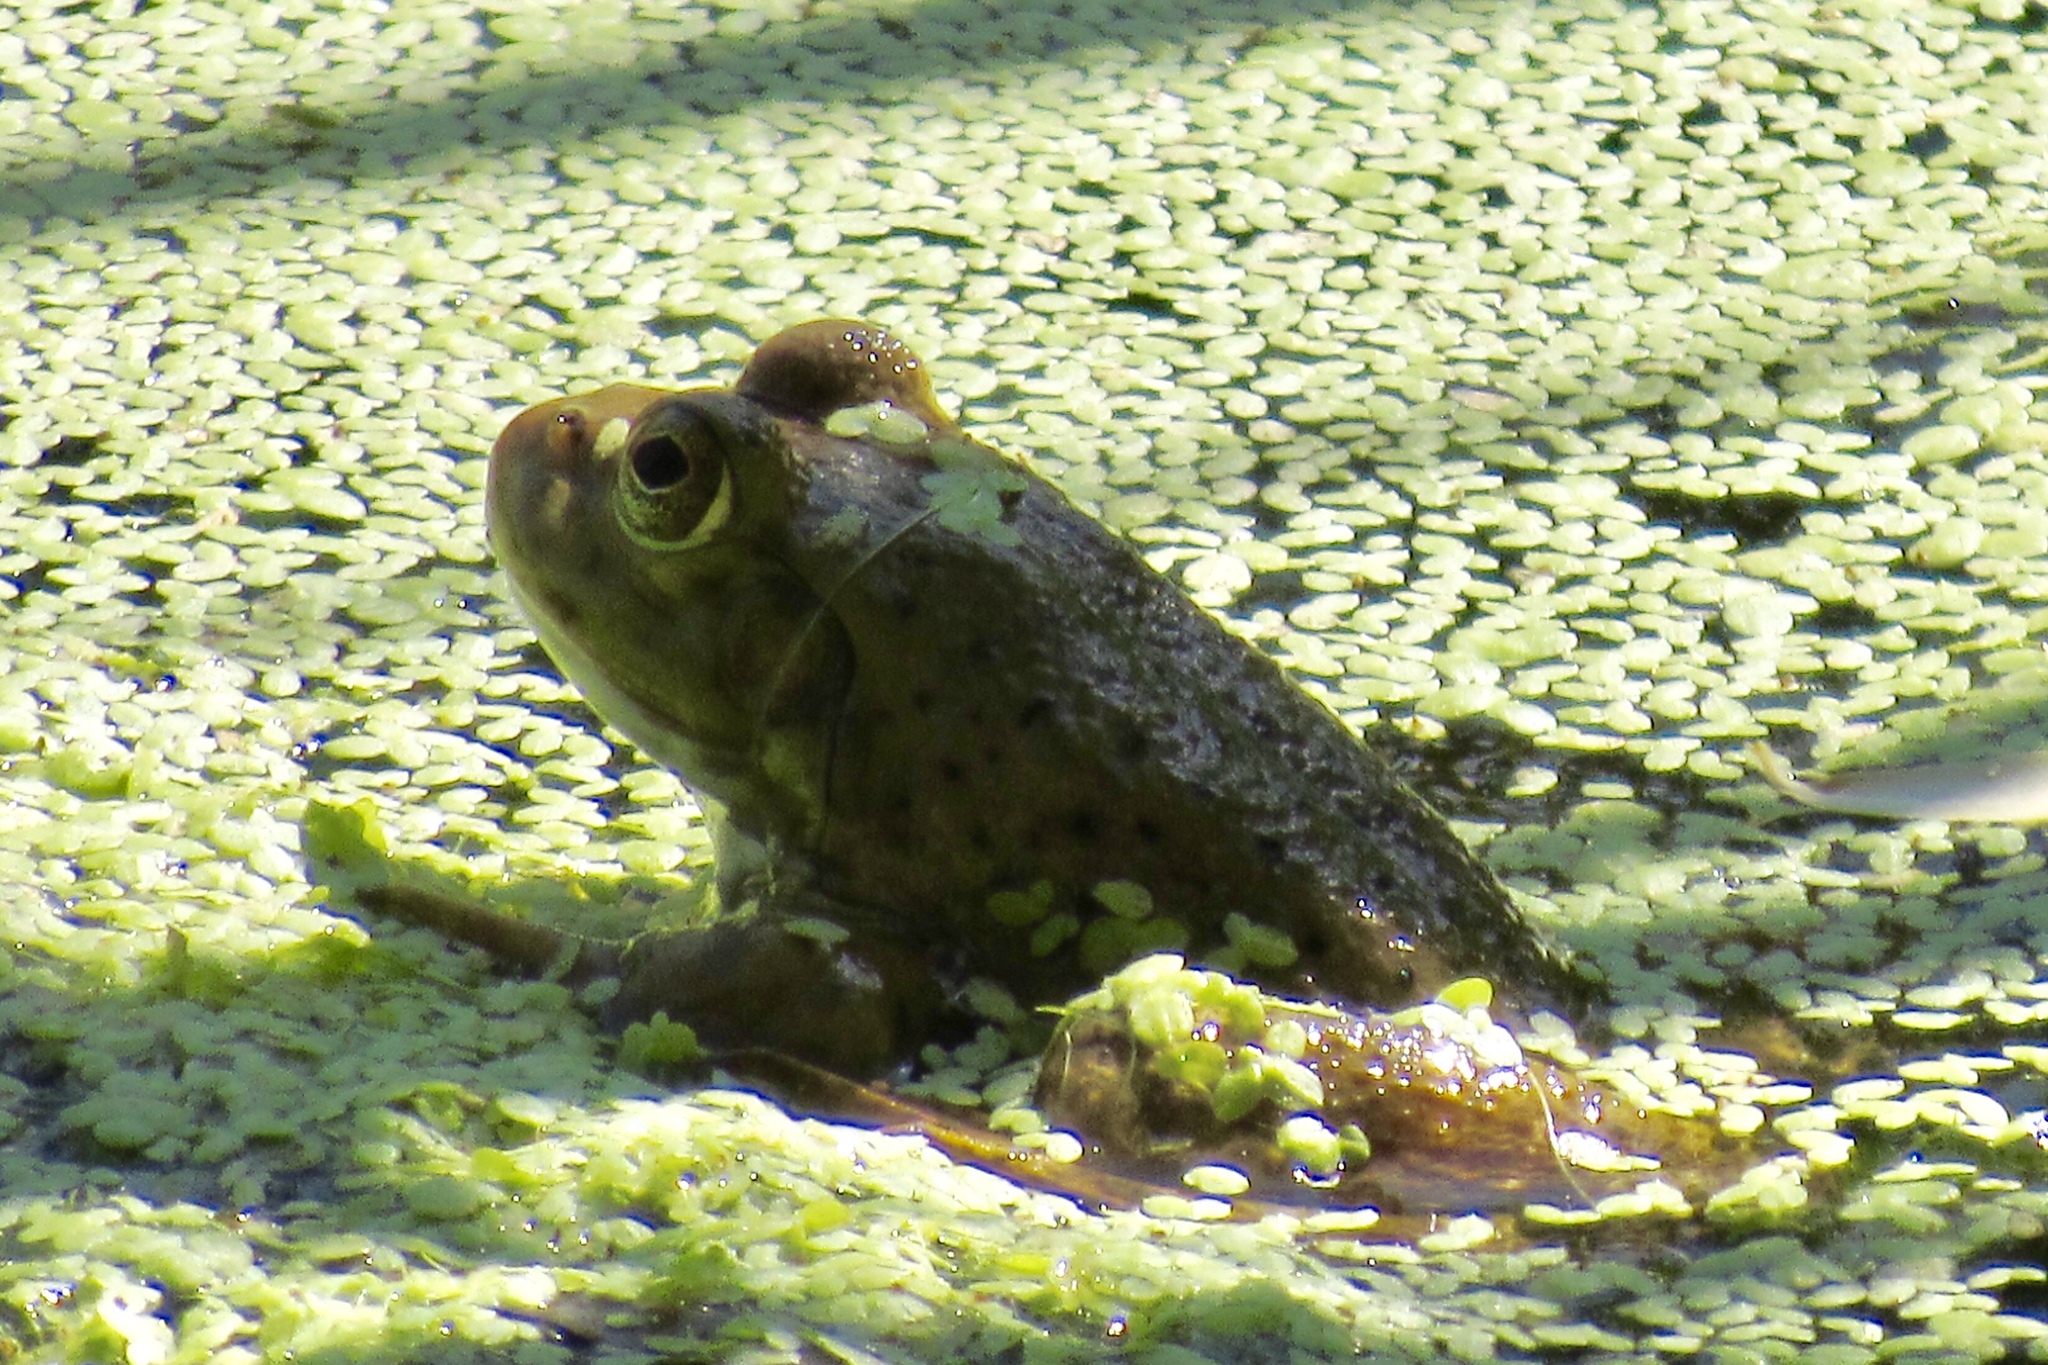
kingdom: Animalia
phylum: Chordata
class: Amphibia
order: Anura
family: Ranidae
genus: Lithobates
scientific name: Lithobates catesbeianus
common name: American bullfrog
